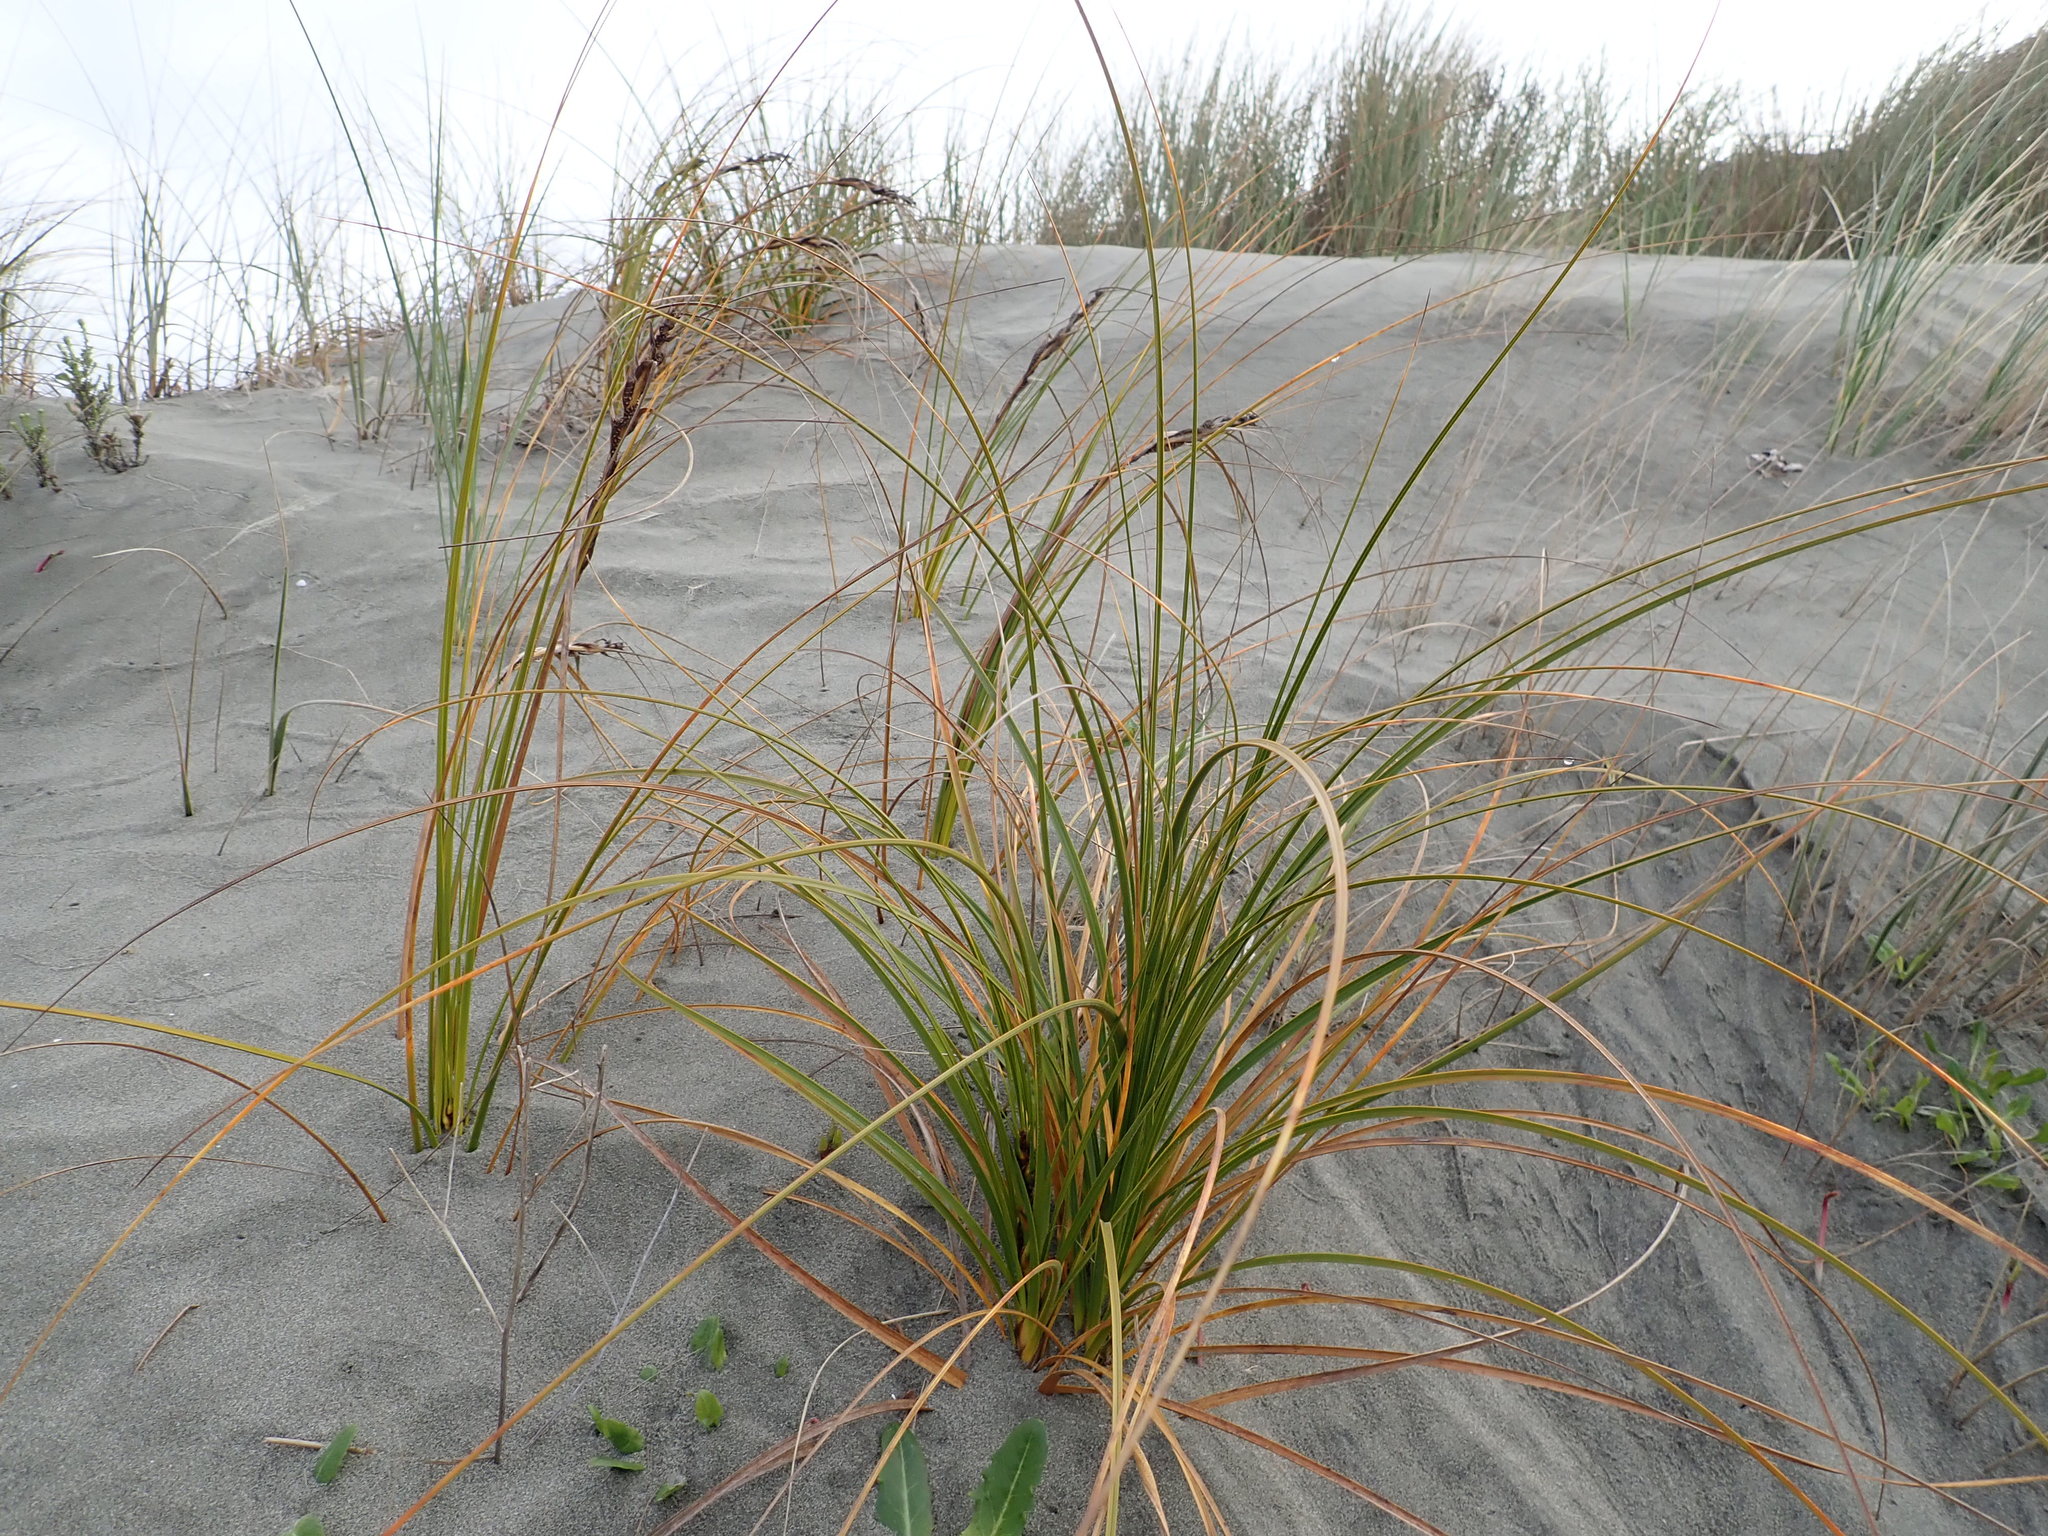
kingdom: Plantae
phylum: Tracheophyta
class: Liliopsida
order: Poales
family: Cyperaceae
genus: Ficinia
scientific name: Ficinia spiralis
